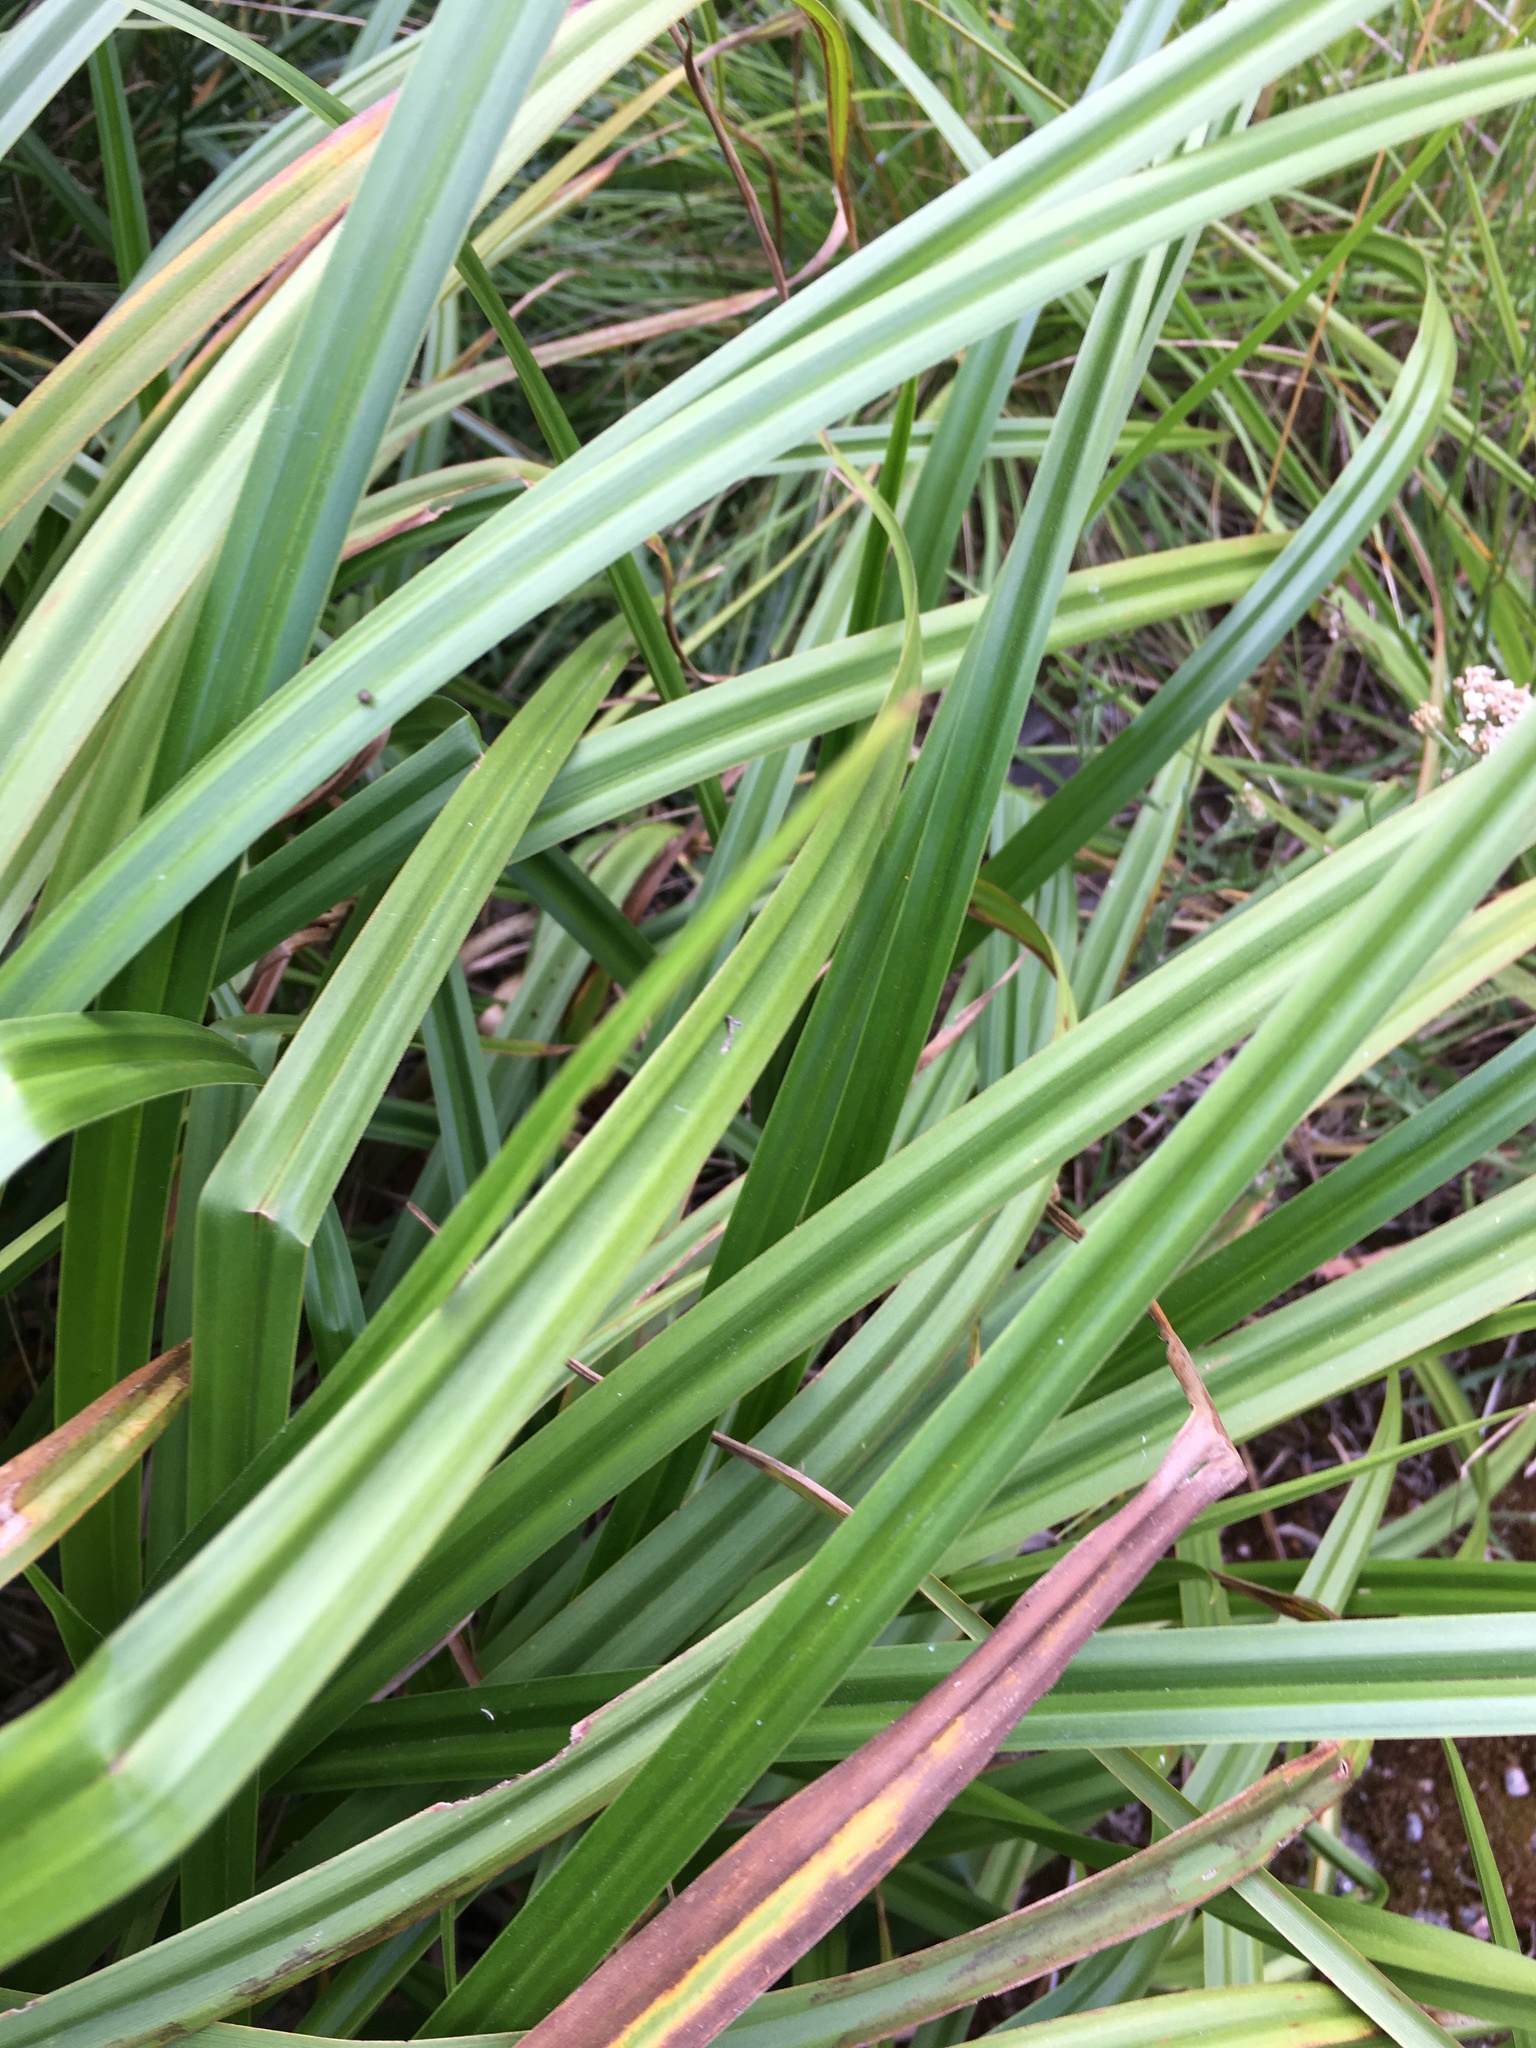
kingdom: Plantae
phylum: Tracheophyta
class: Liliopsida
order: Poales
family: Cyperaceae
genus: Scirpus
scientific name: Scirpus sylvaticus
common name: Wood club-rush
